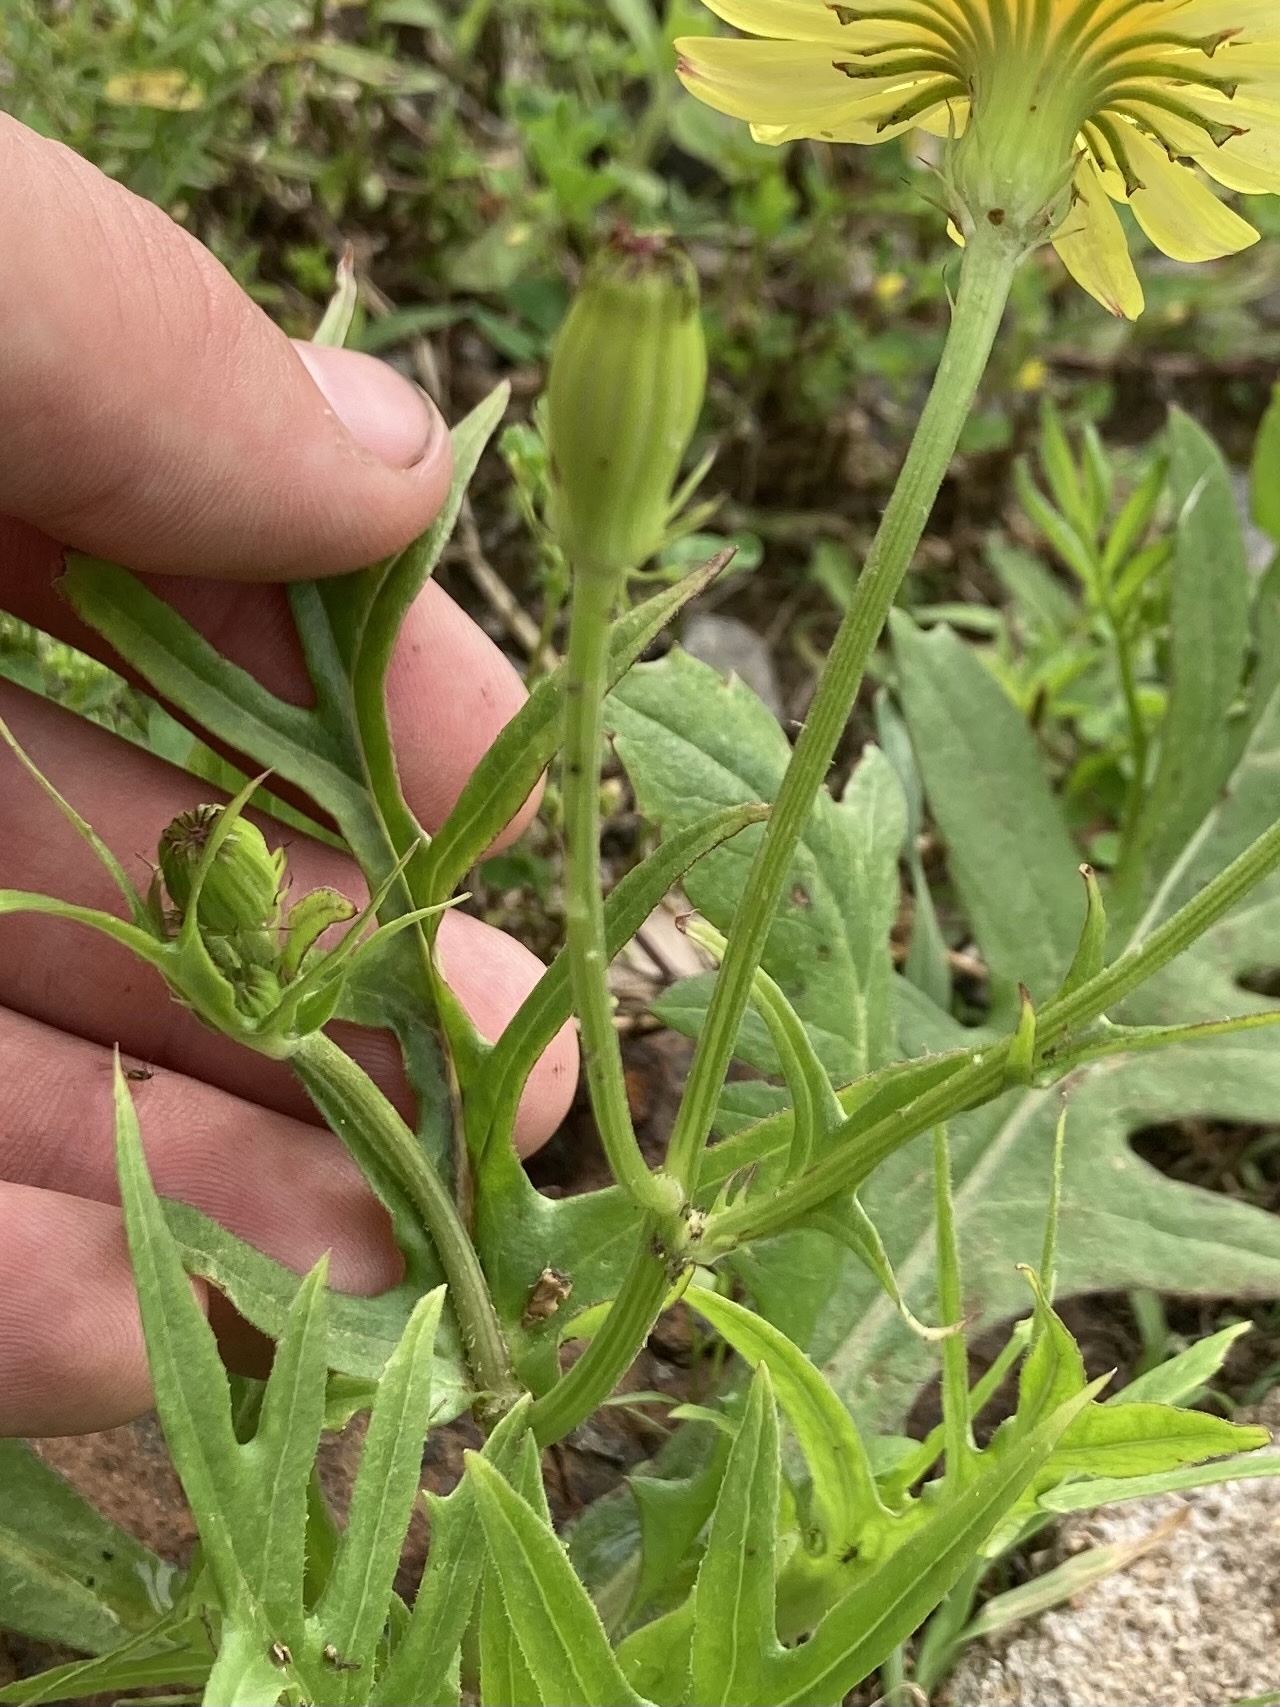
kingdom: Plantae
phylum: Tracheophyta
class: Magnoliopsida
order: Asterales
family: Asteraceae
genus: Pyrrhopappus
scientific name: Pyrrhopappus pauciflorus
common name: Texas false dandelion
